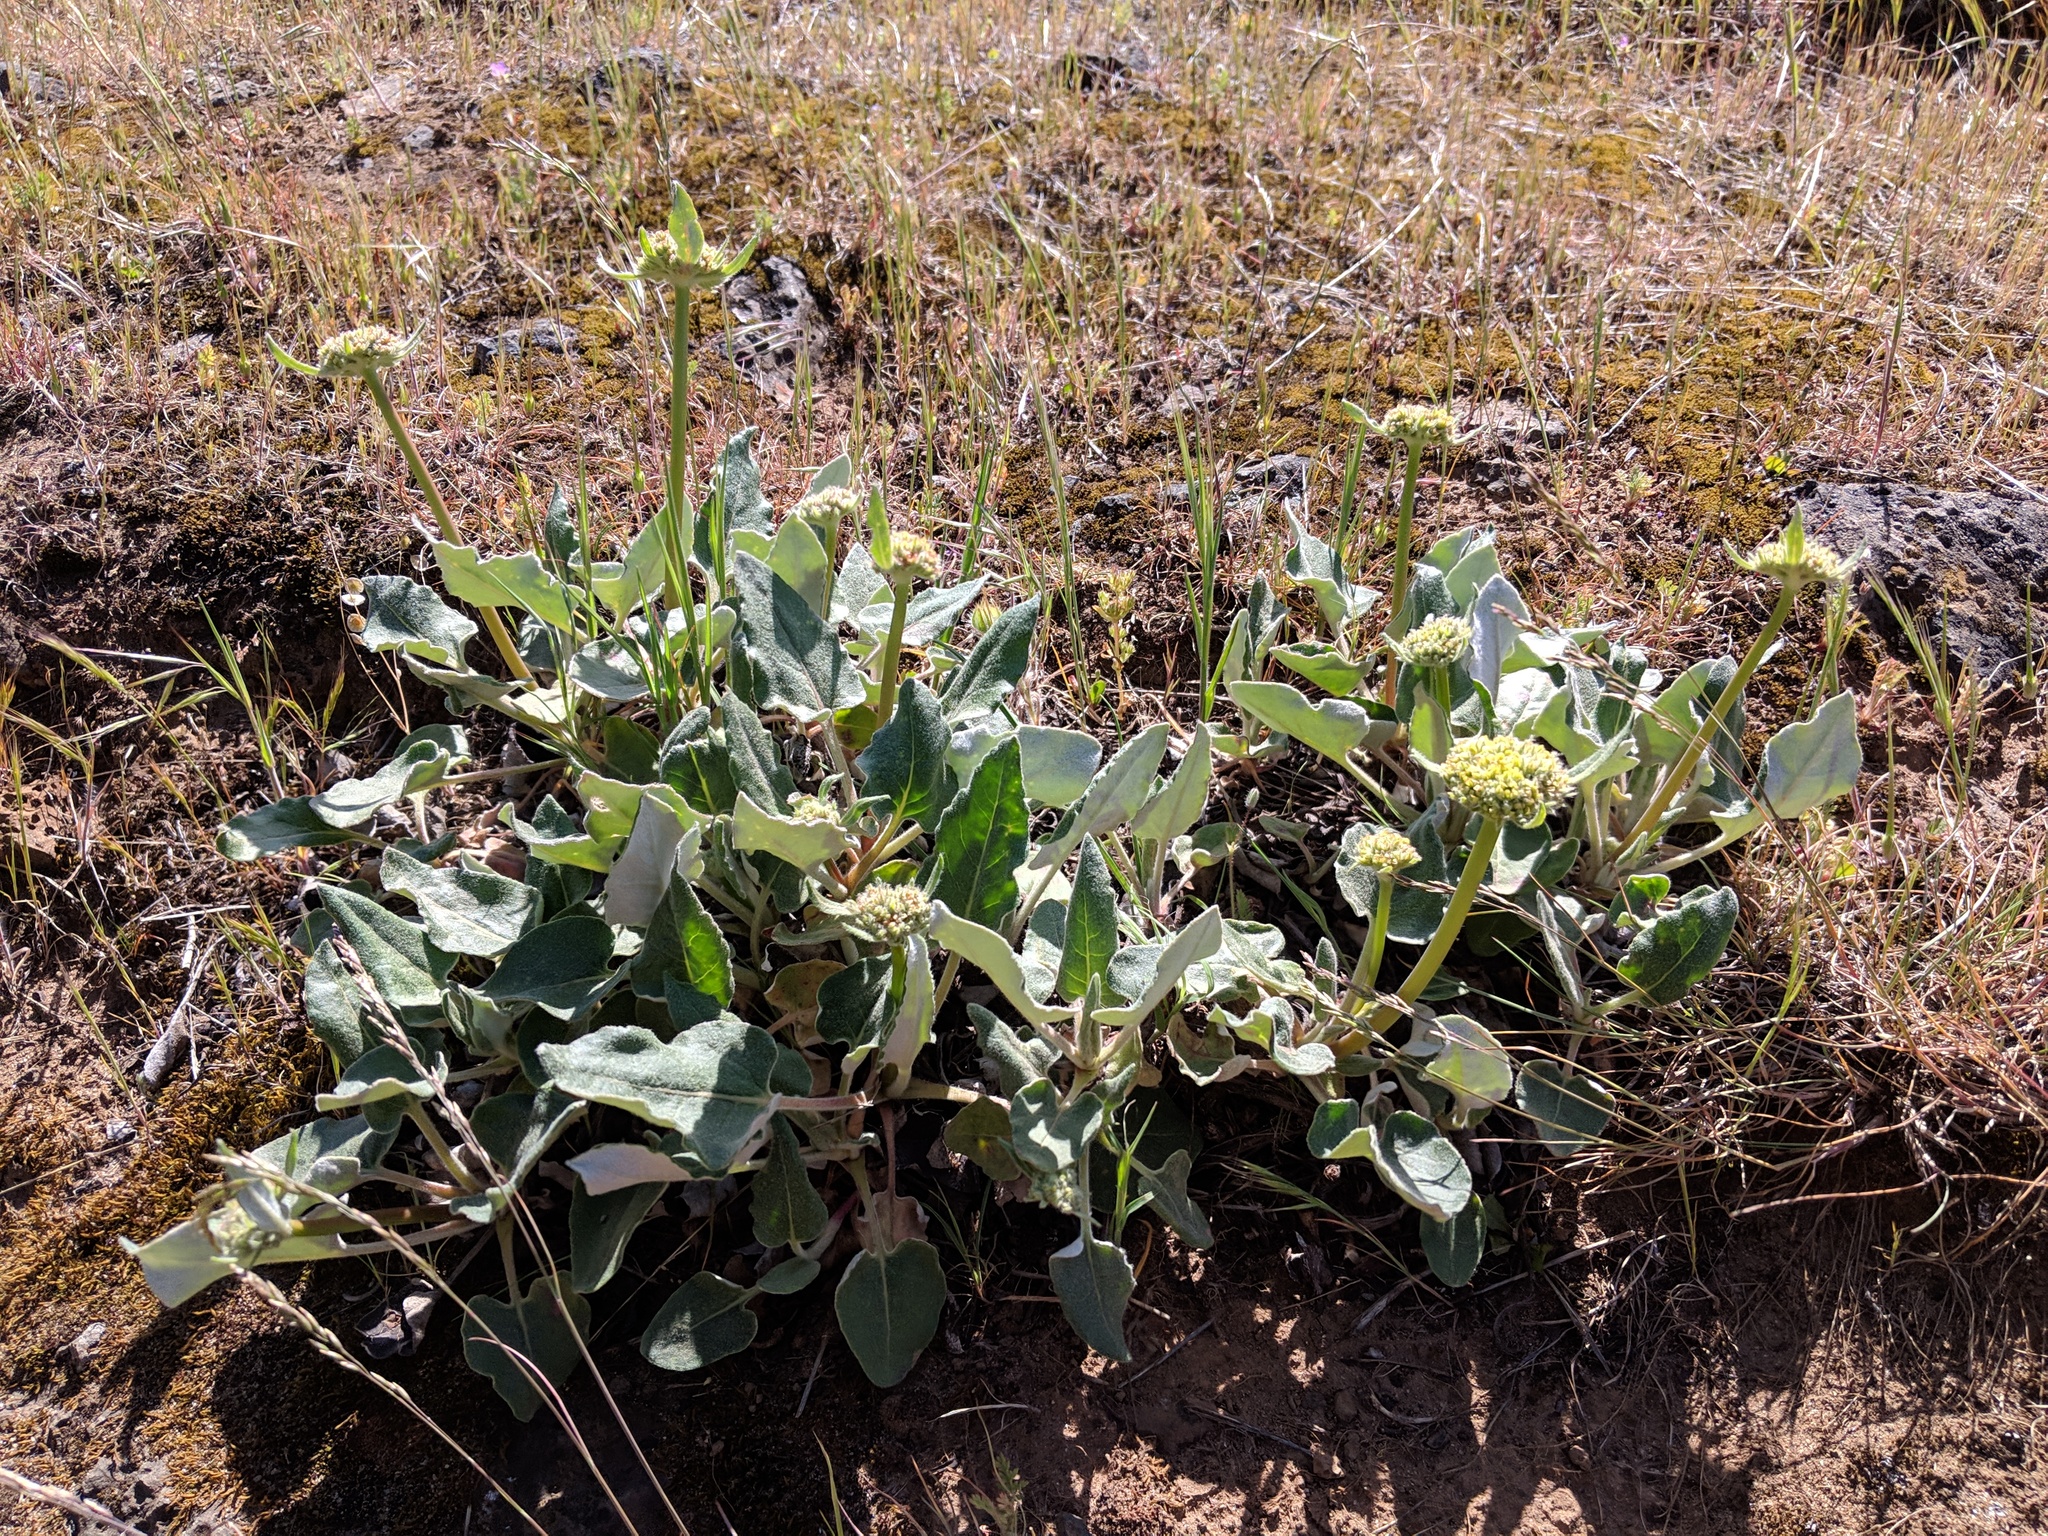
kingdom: Plantae
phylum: Tracheophyta
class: Magnoliopsida
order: Caryophyllales
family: Polygonaceae
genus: Eriogonum
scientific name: Eriogonum compositum
